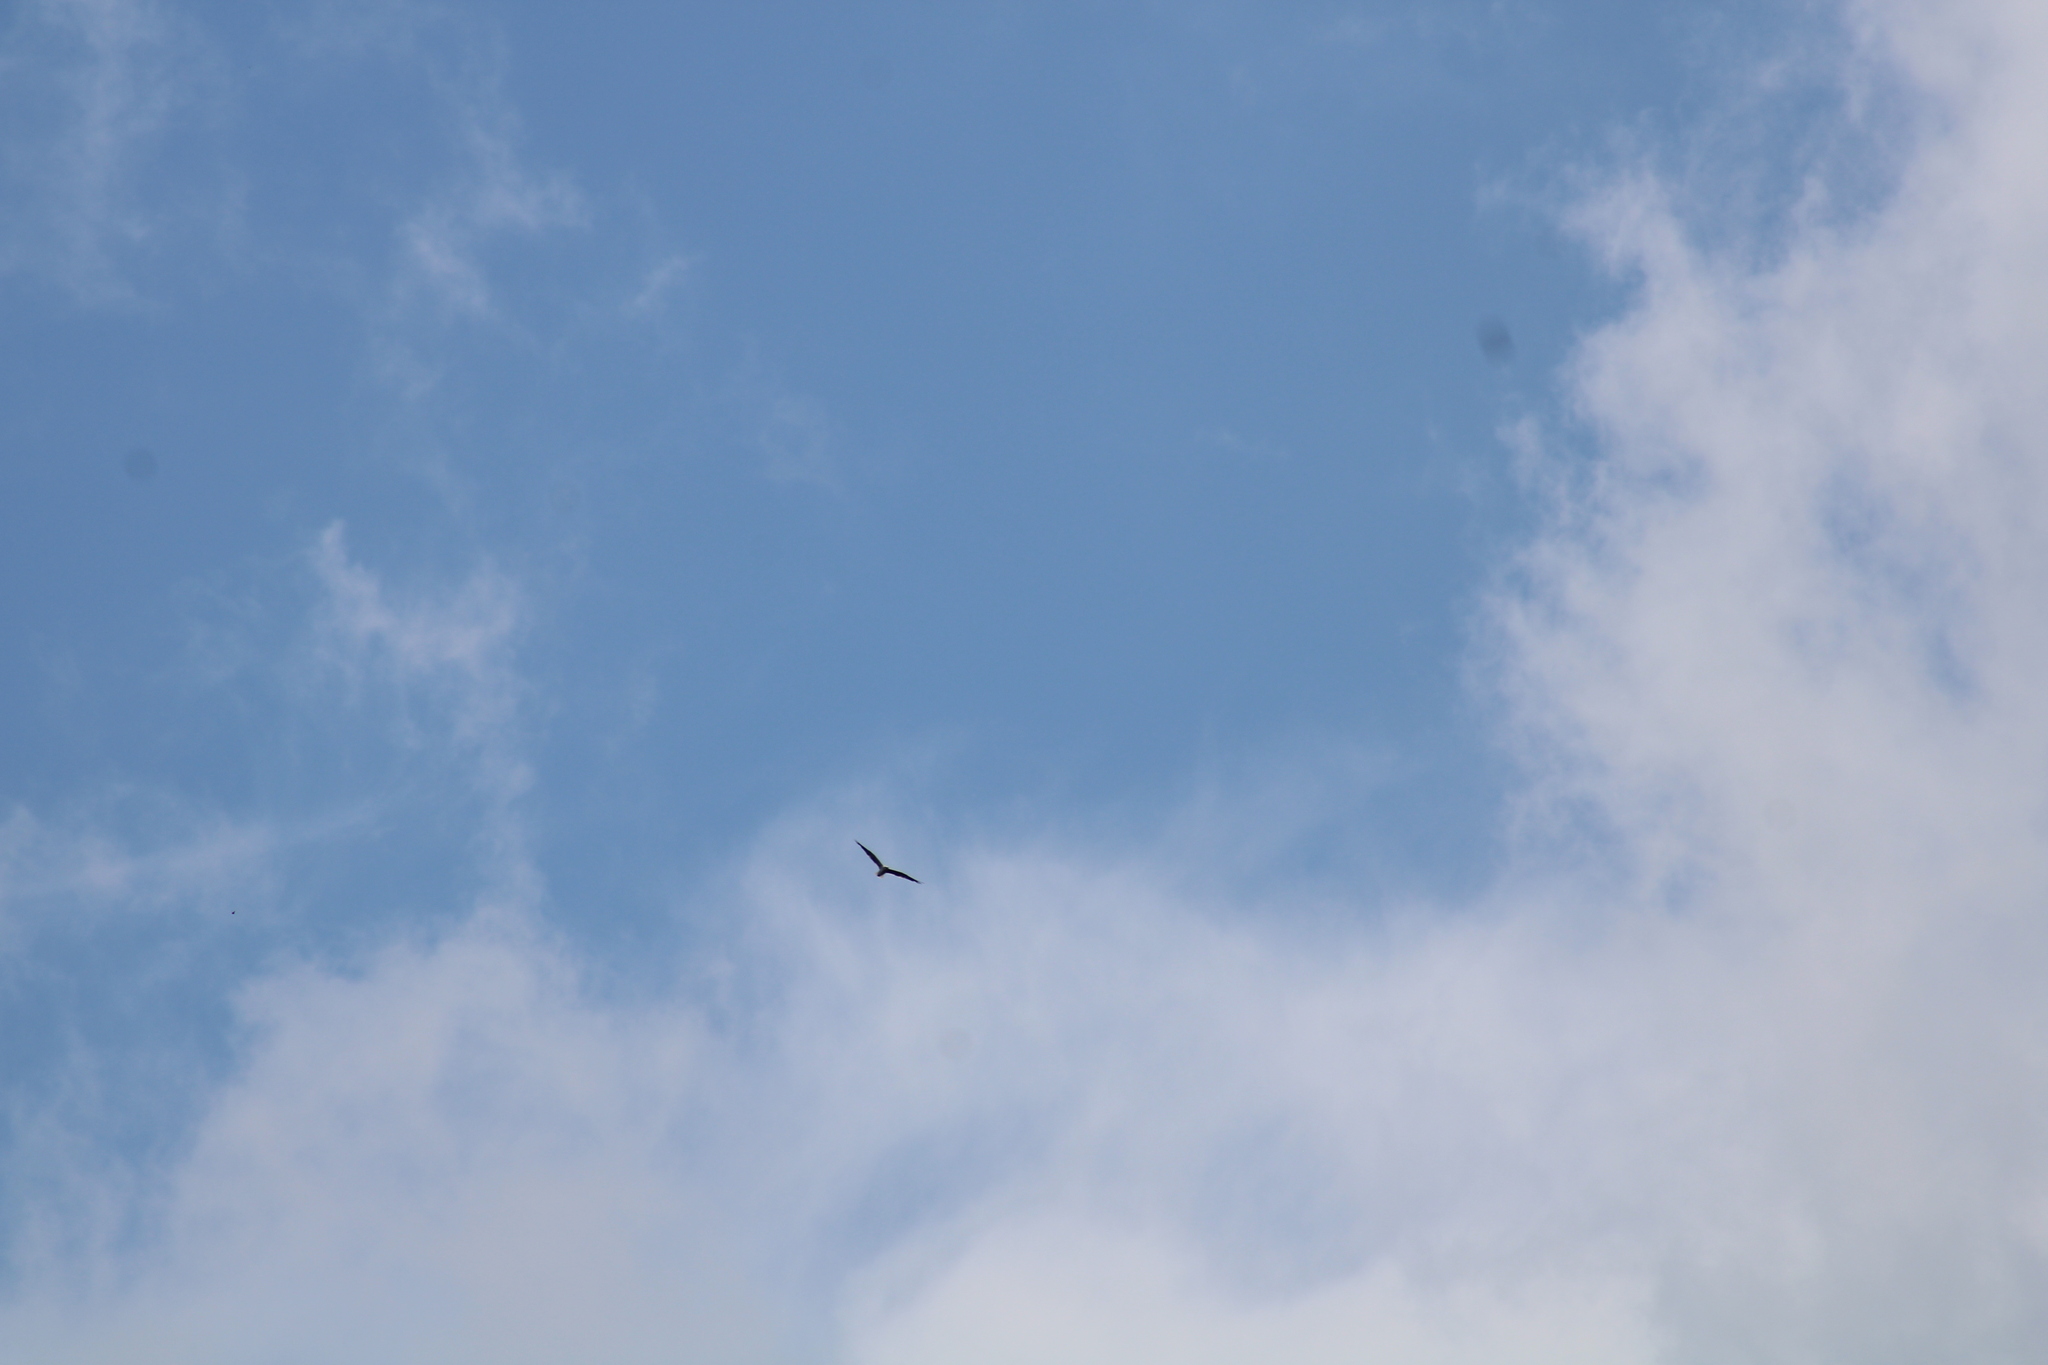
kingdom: Animalia
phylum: Chordata
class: Aves
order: Charadriiformes
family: Laridae
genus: Leucophaeus
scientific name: Leucophaeus atricilla
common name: Laughing gull
